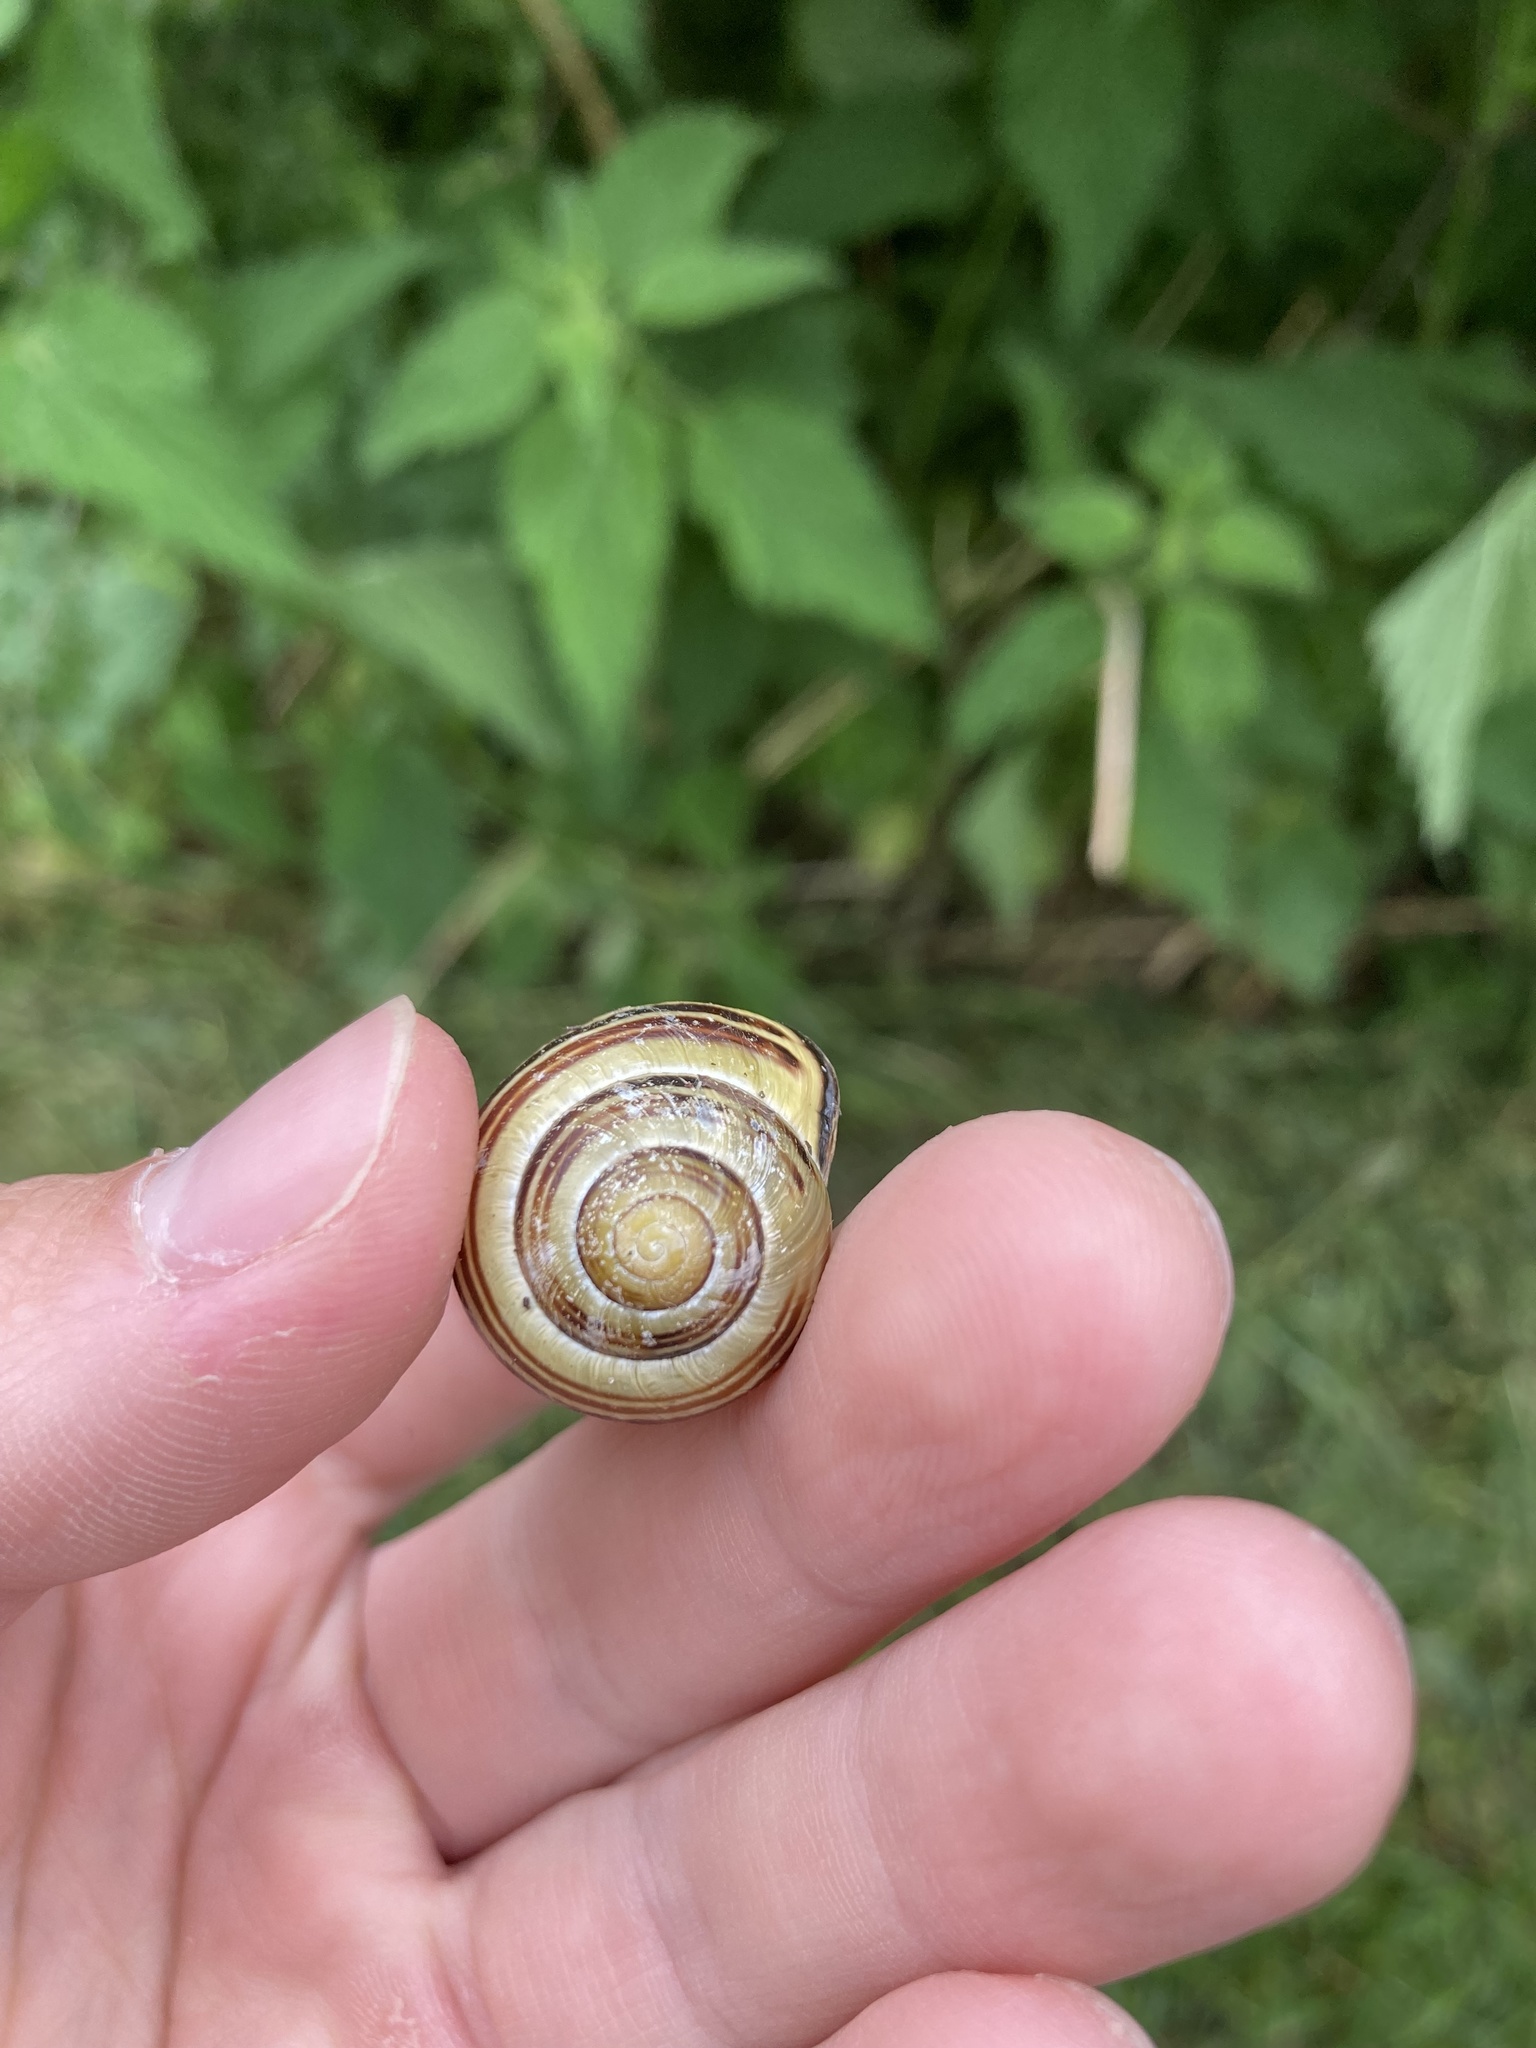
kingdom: Animalia
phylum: Mollusca
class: Gastropoda
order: Stylommatophora
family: Helicidae
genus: Cepaea
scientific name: Cepaea nemoralis
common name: Grovesnail
